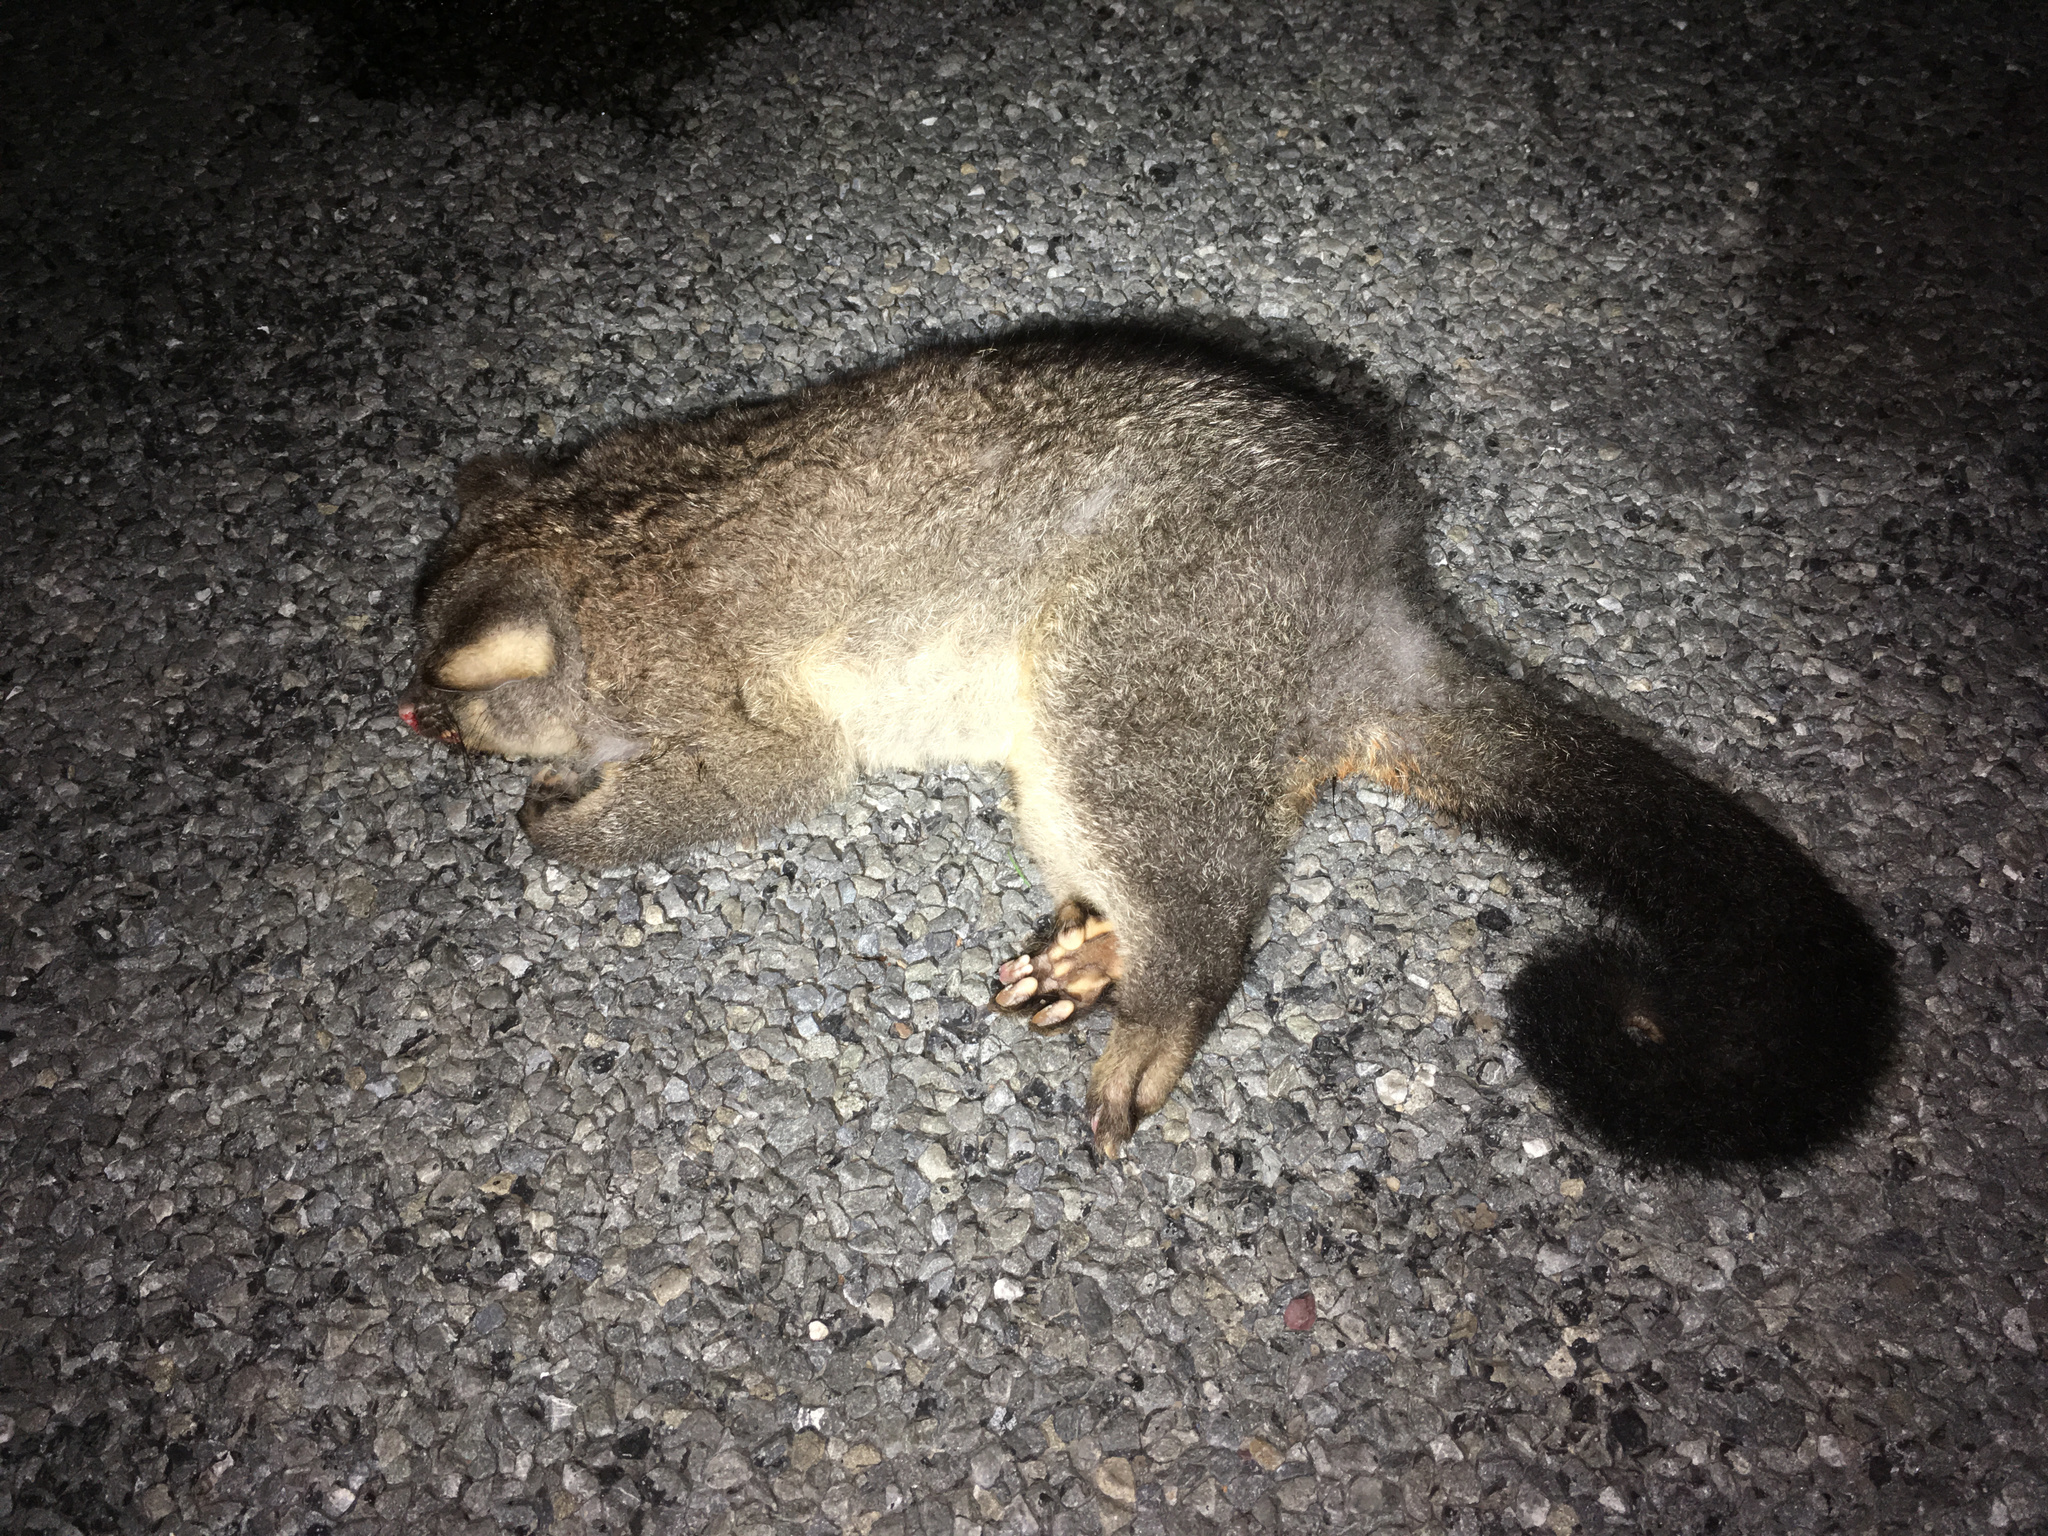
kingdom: Animalia
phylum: Chordata
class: Mammalia
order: Diprotodontia
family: Phalangeridae
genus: Trichosurus
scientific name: Trichosurus vulpecula
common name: Common brushtail
